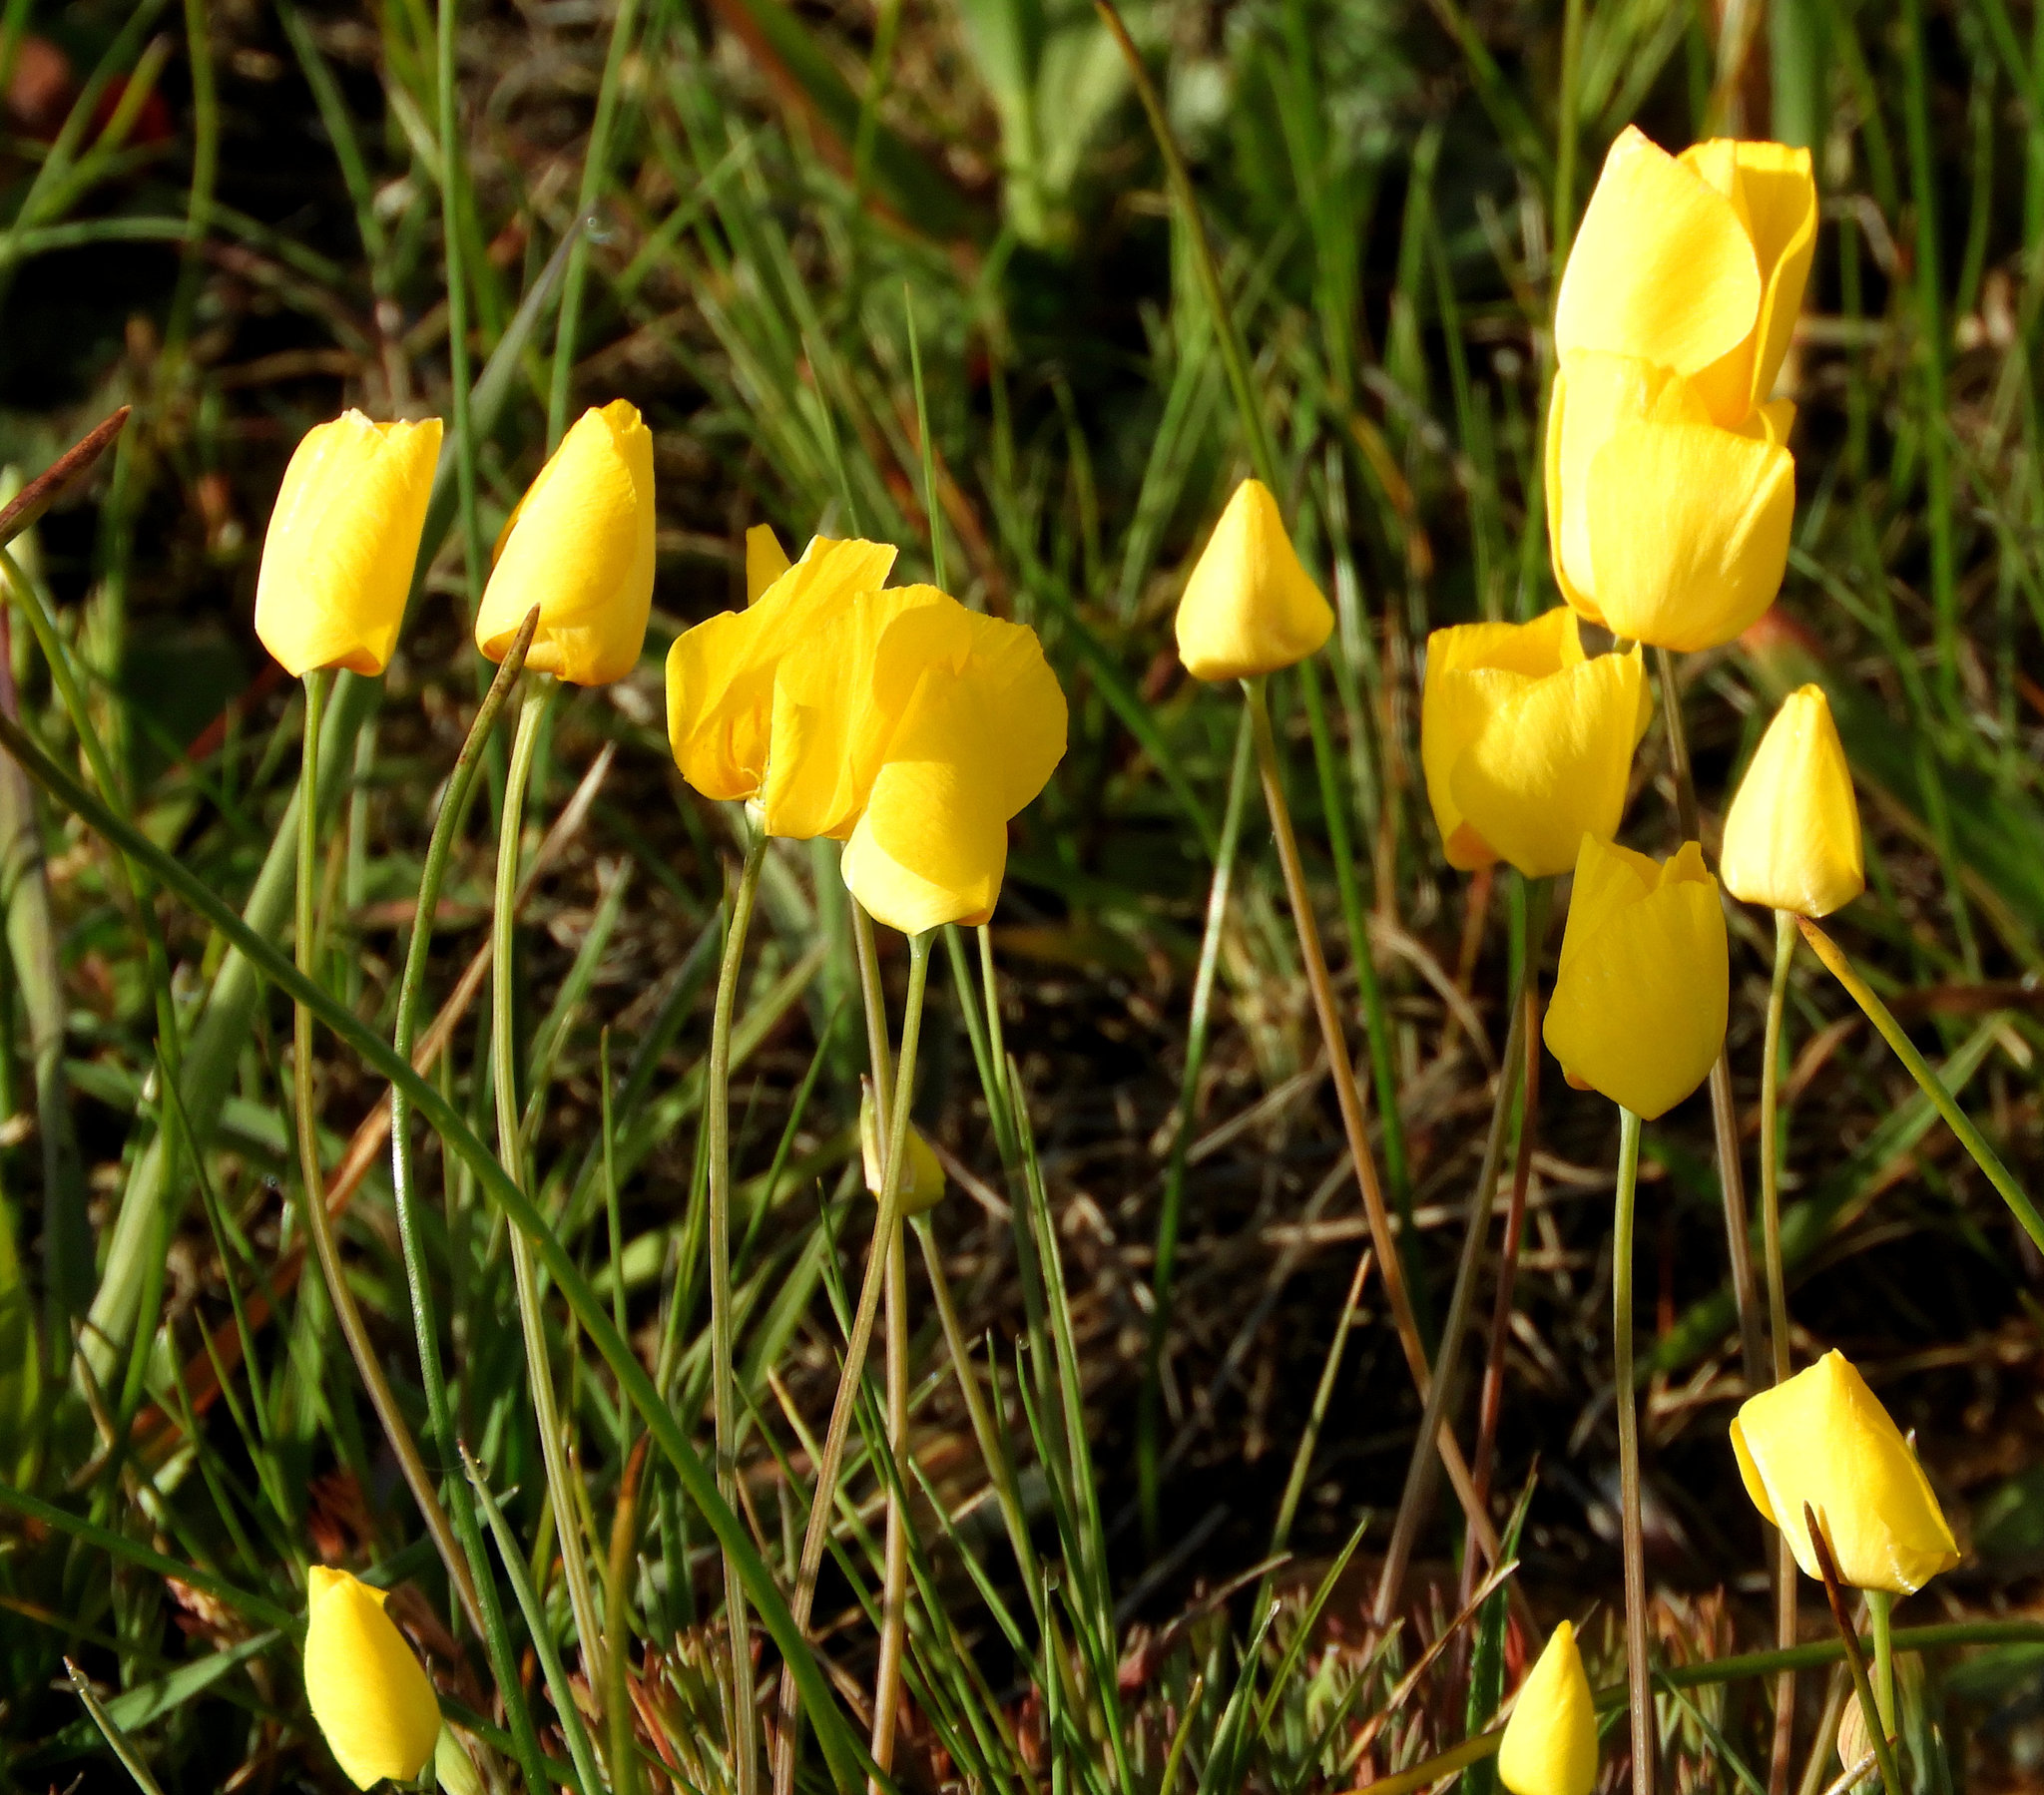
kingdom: Plantae
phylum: Tracheophyta
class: Magnoliopsida
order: Ranunculales
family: Papaveraceae
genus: Eschscholzia
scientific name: Eschscholzia lobbii
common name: Frying-pans
